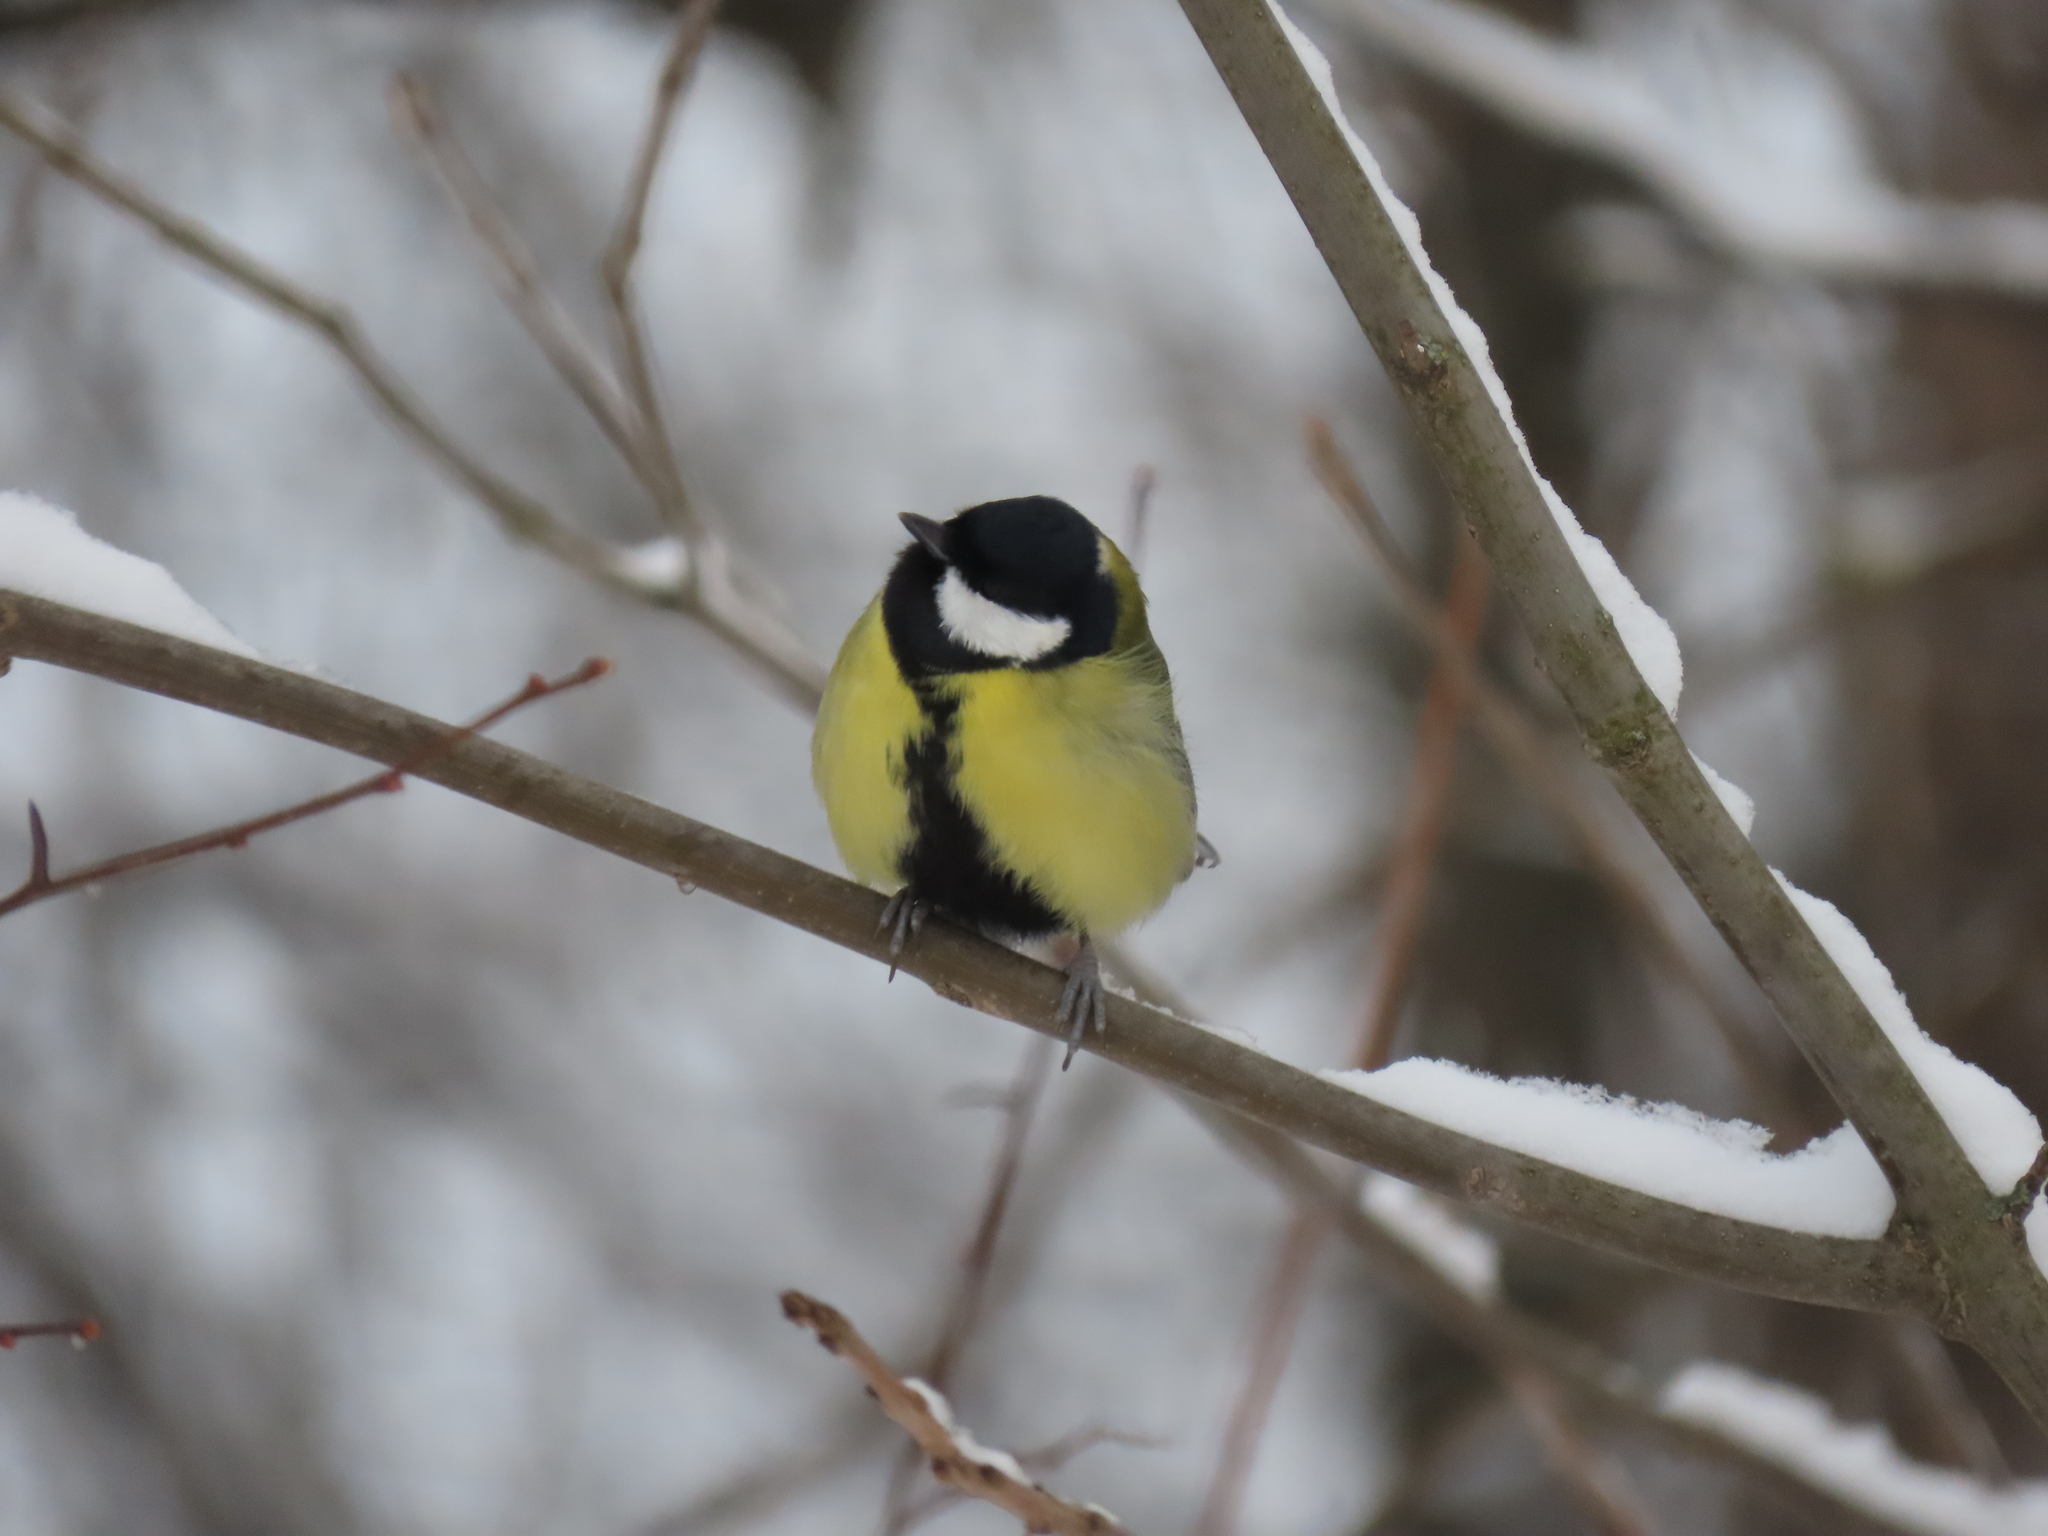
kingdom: Animalia
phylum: Chordata
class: Aves
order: Passeriformes
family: Paridae
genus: Parus
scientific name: Parus major
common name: Great tit
